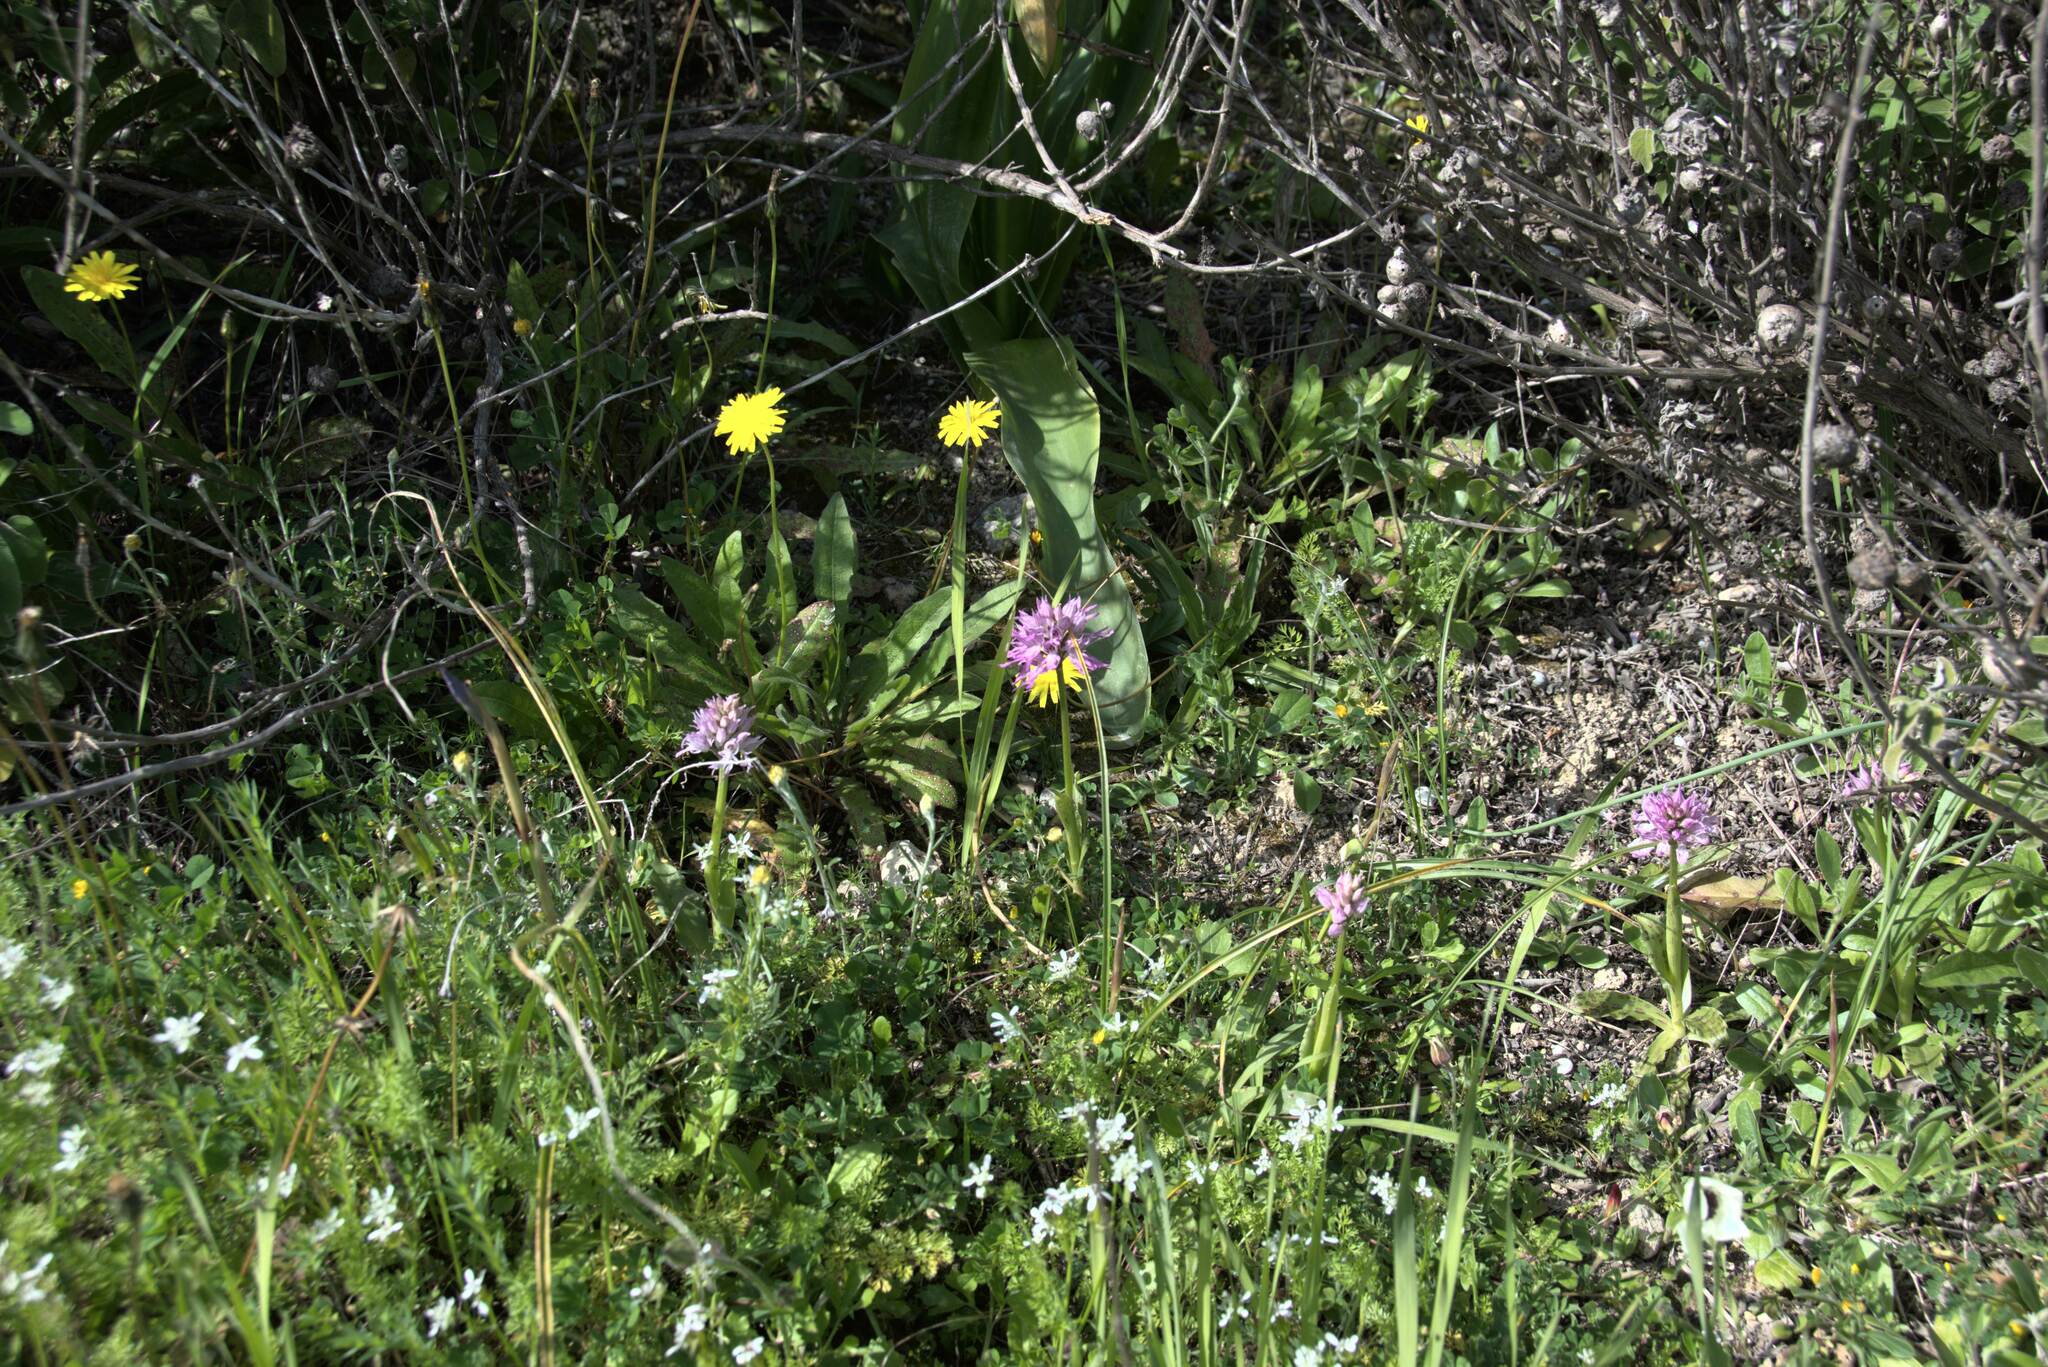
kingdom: Plantae
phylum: Tracheophyta
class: Liliopsida
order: Asparagales
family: Orchidaceae
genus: Orchis
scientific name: Orchis italica
